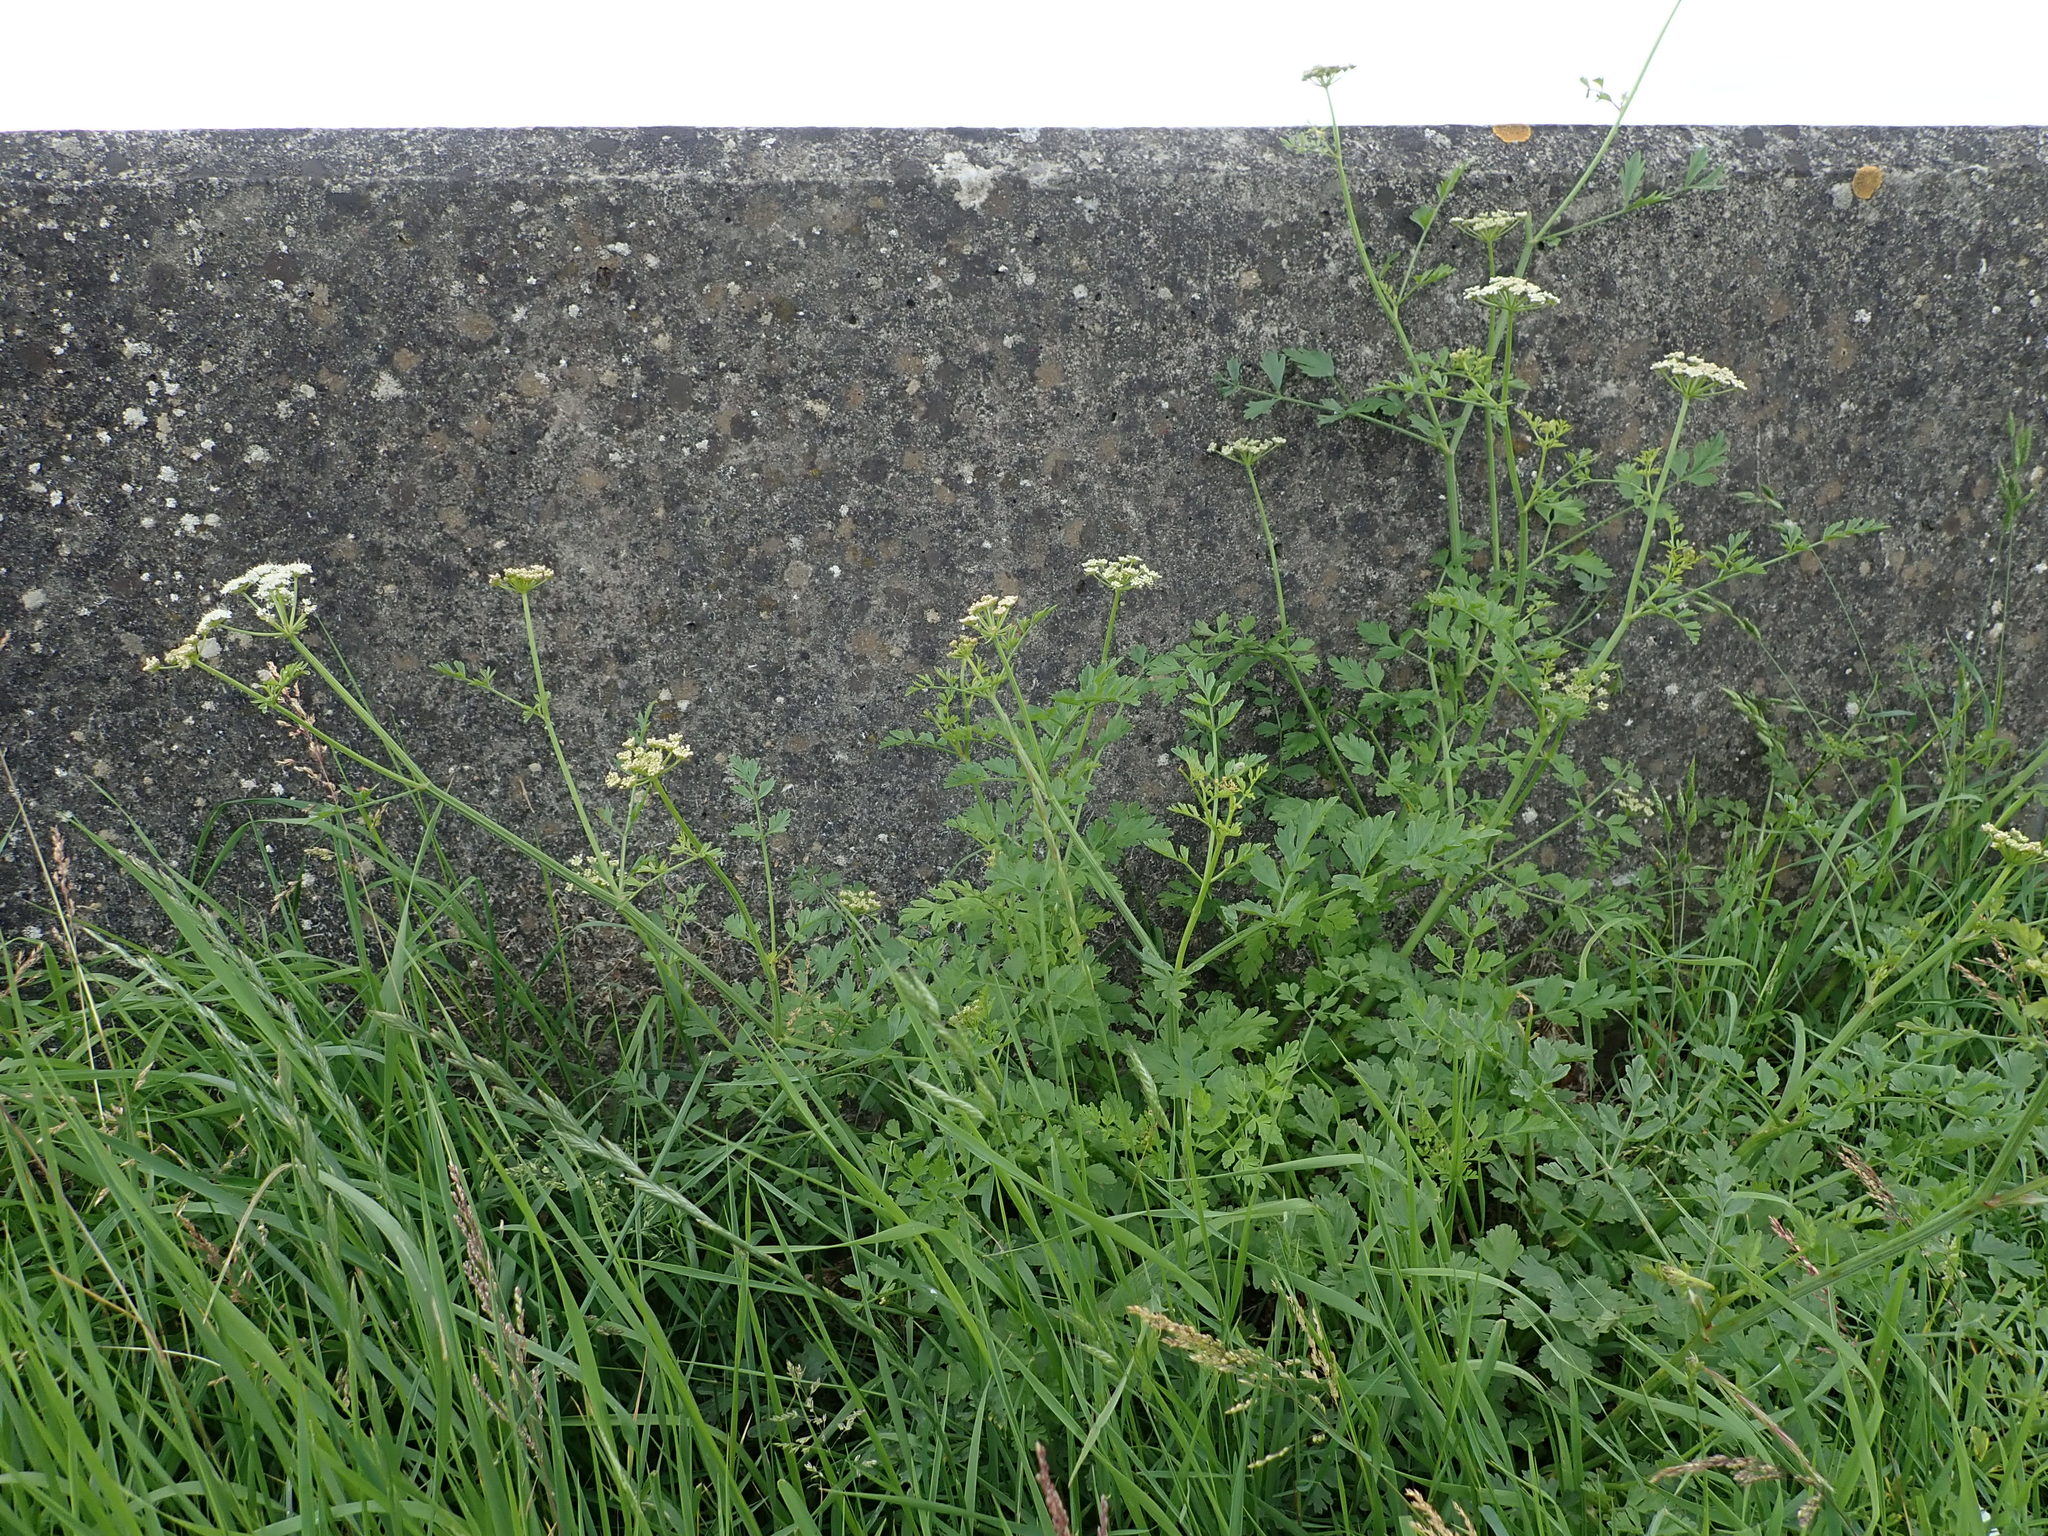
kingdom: Plantae
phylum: Tracheophyta
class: Magnoliopsida
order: Apiales
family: Apiaceae
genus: Oenanthe
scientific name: Oenanthe crocata
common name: Hemlock water-dropwort
